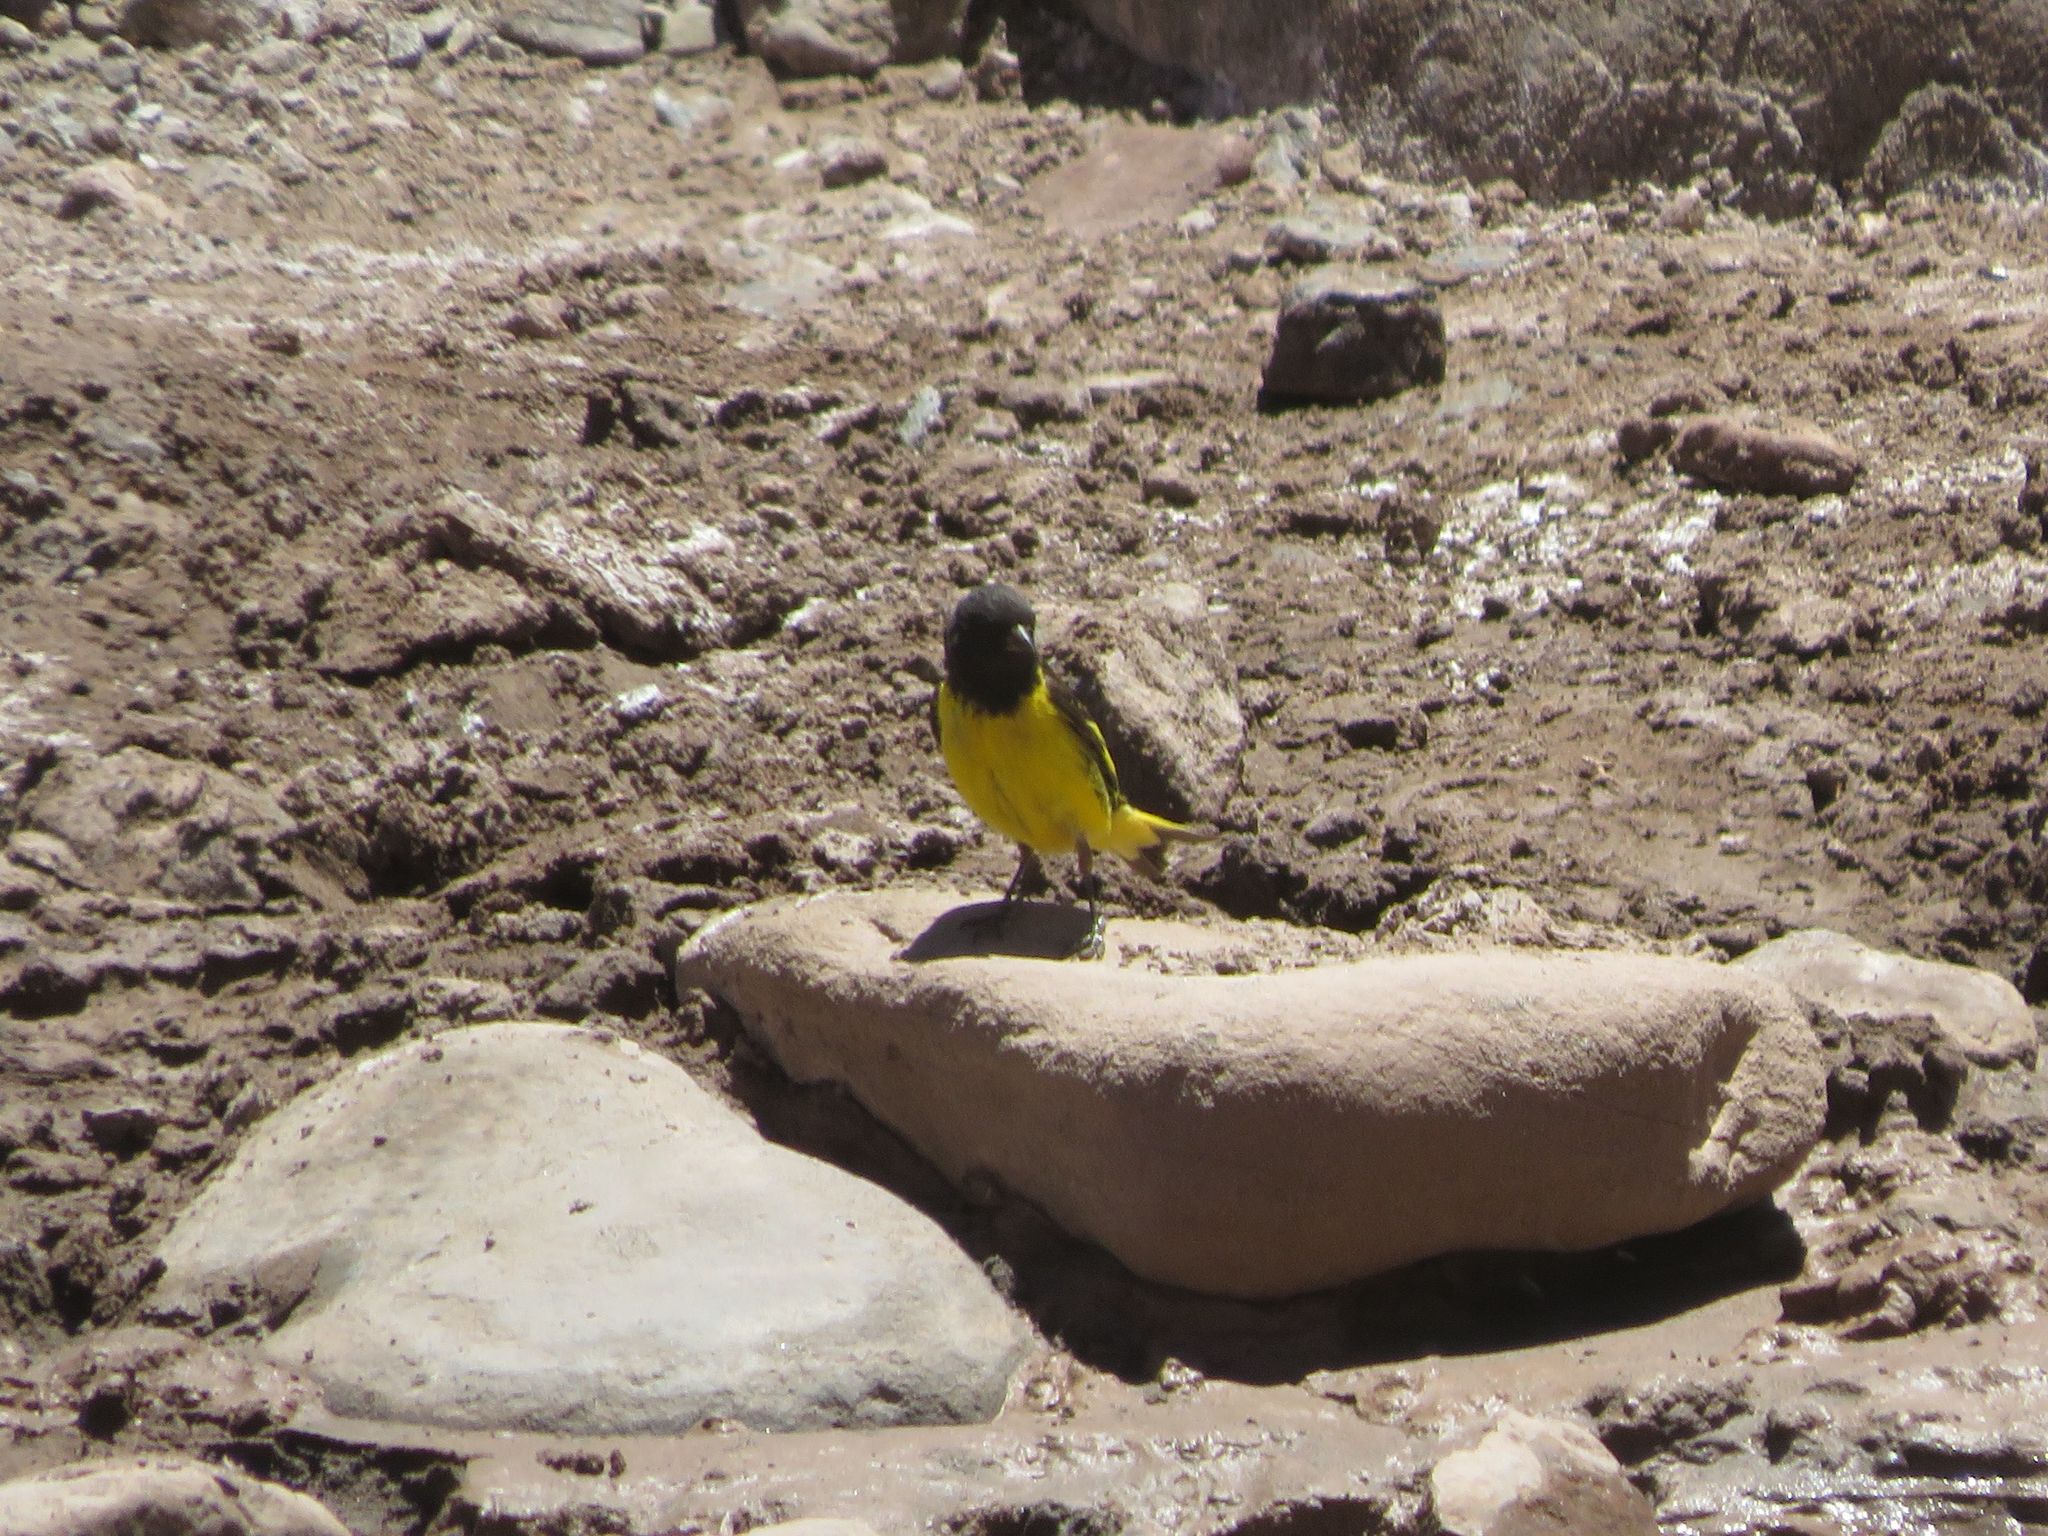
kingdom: Animalia
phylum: Chordata
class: Aves
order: Passeriformes
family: Fringillidae
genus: Spinus
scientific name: Spinus uropygialis
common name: Yellow-rumped siskin
